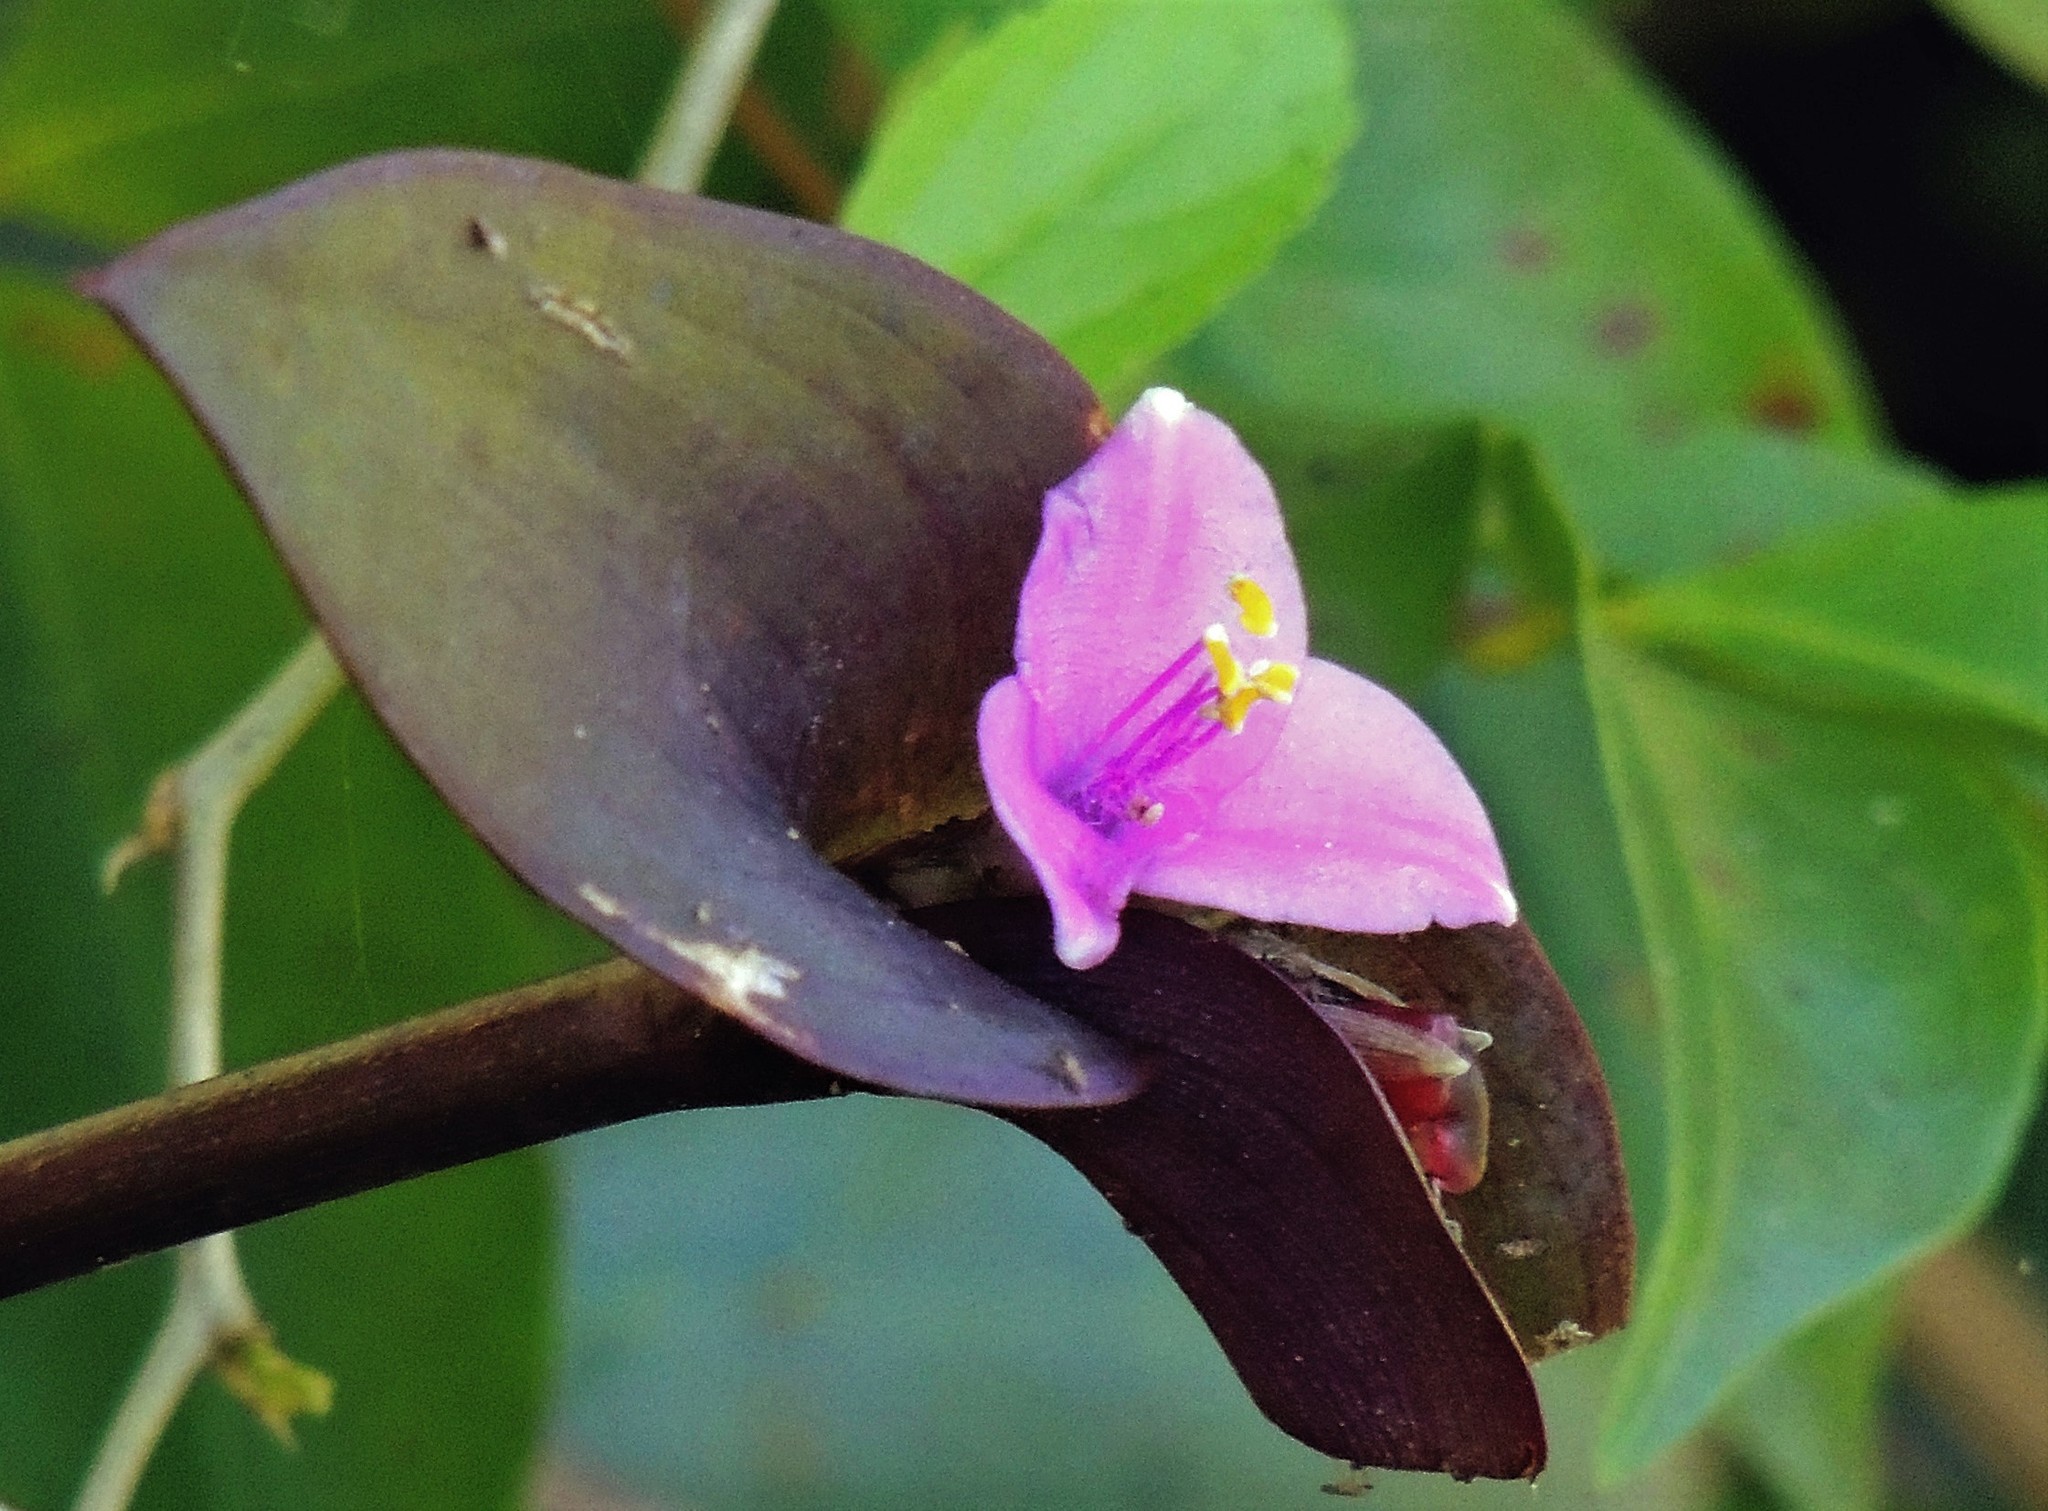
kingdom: Plantae
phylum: Tracheophyta
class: Liliopsida
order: Commelinales
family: Commelinaceae
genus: Tradescantia
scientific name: Tradescantia pallida
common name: Purpleheart
